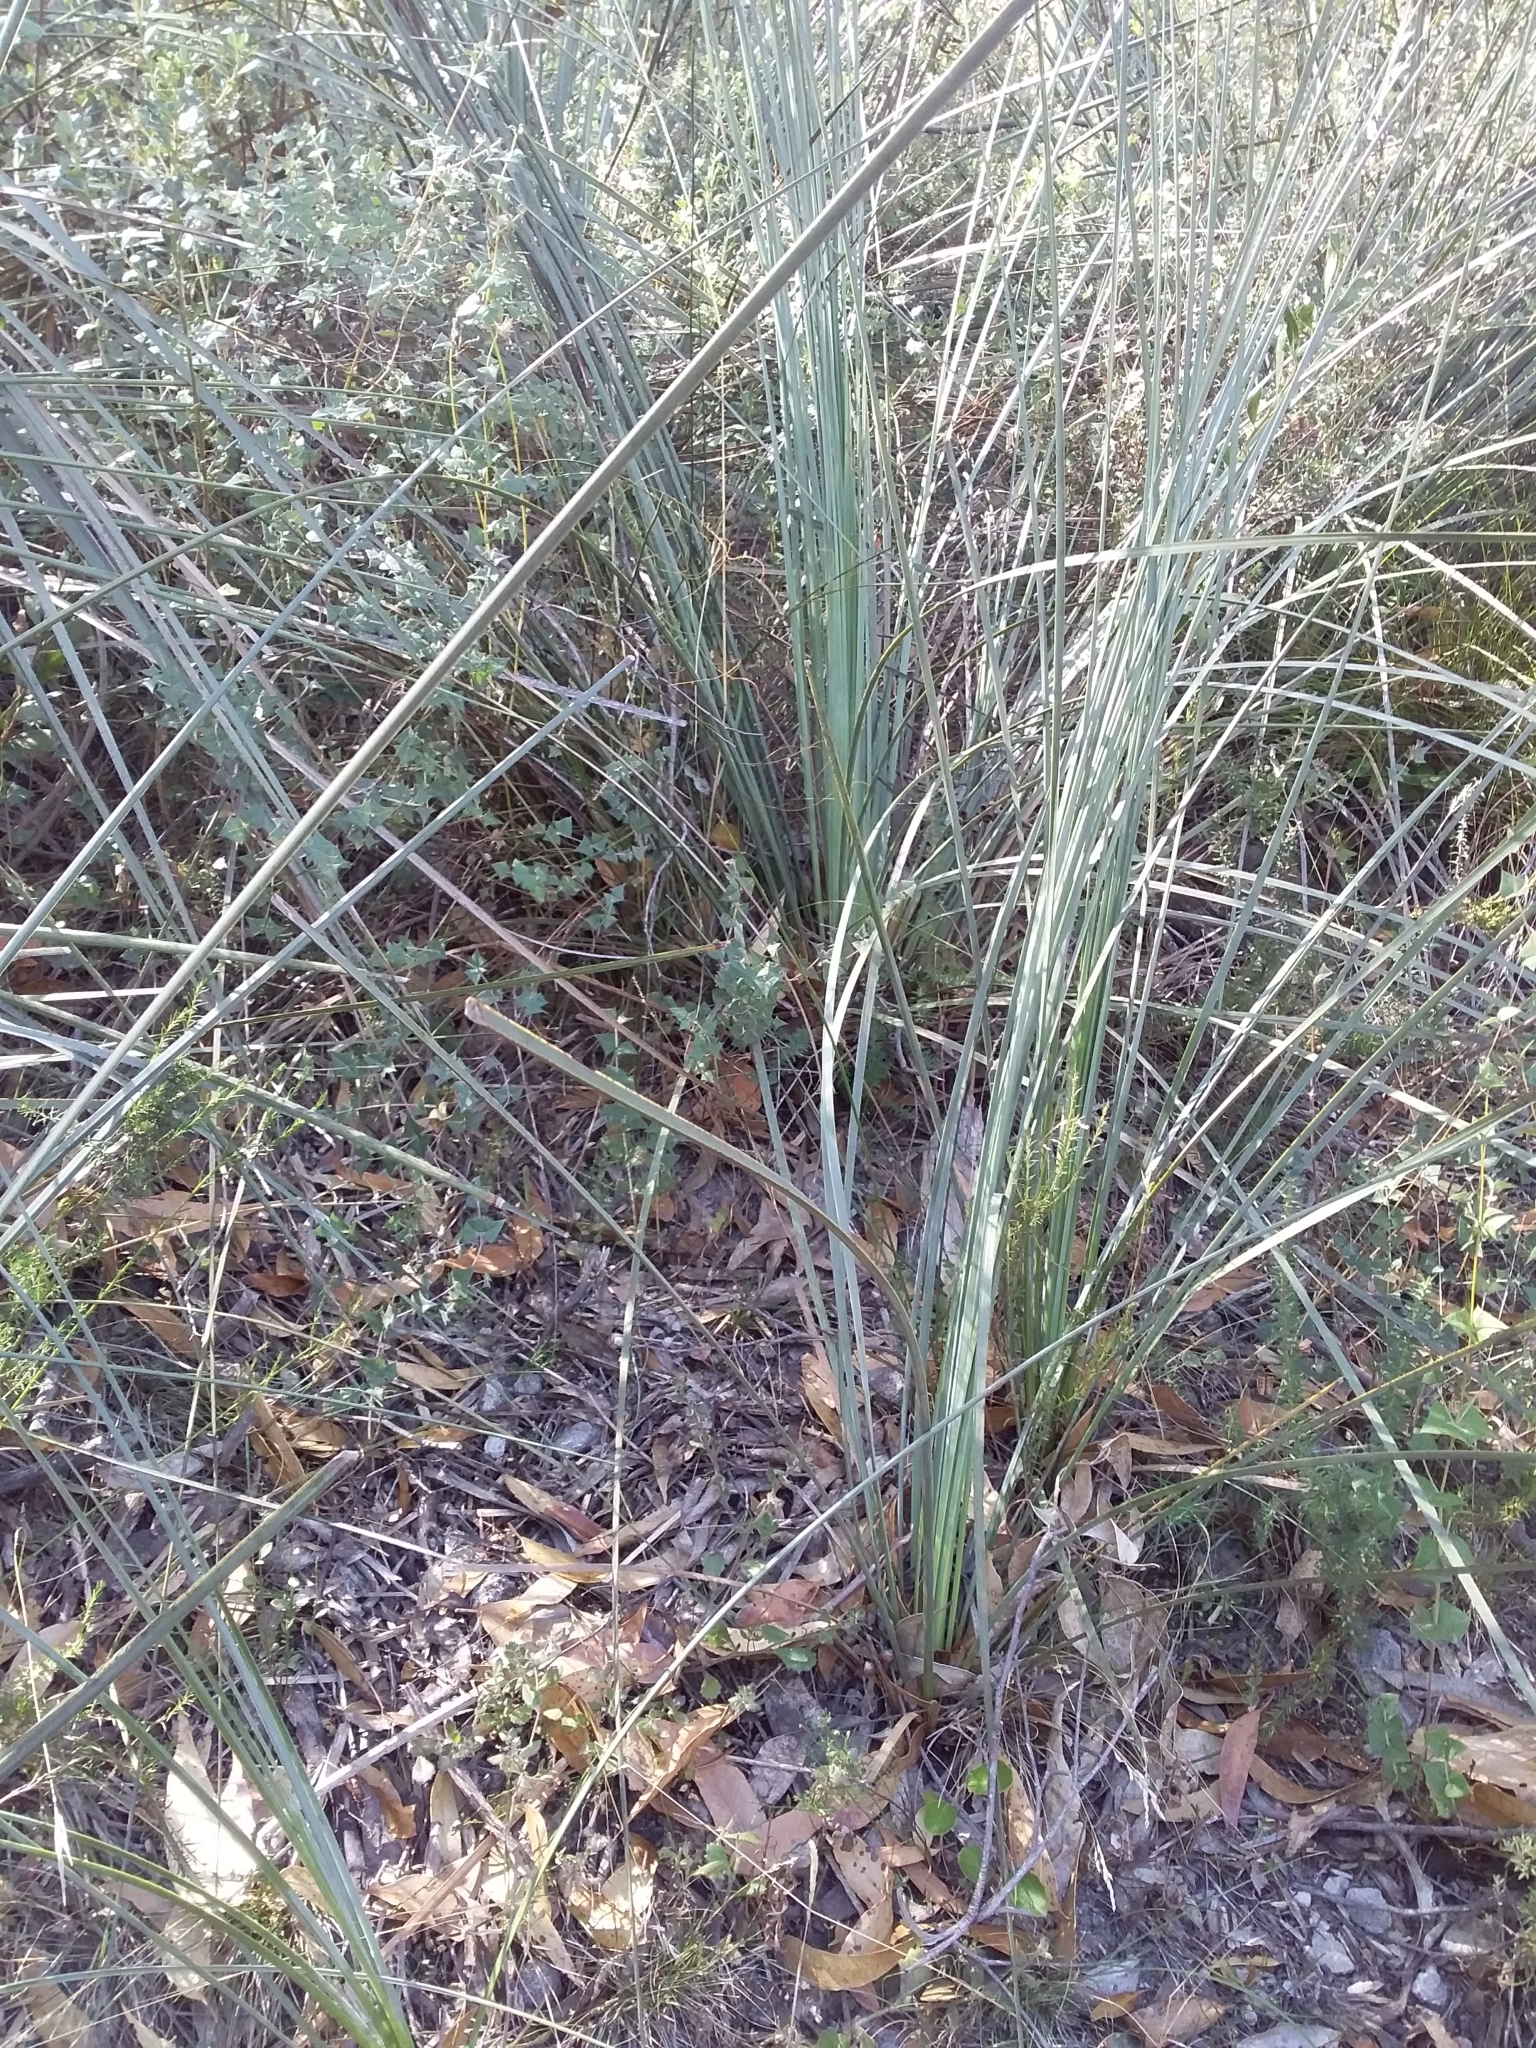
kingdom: Plantae
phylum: Tracheophyta
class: Liliopsida
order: Asparagales
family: Asphodelaceae
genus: Xanthorrhoea
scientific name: Xanthorrhoea semiplana
